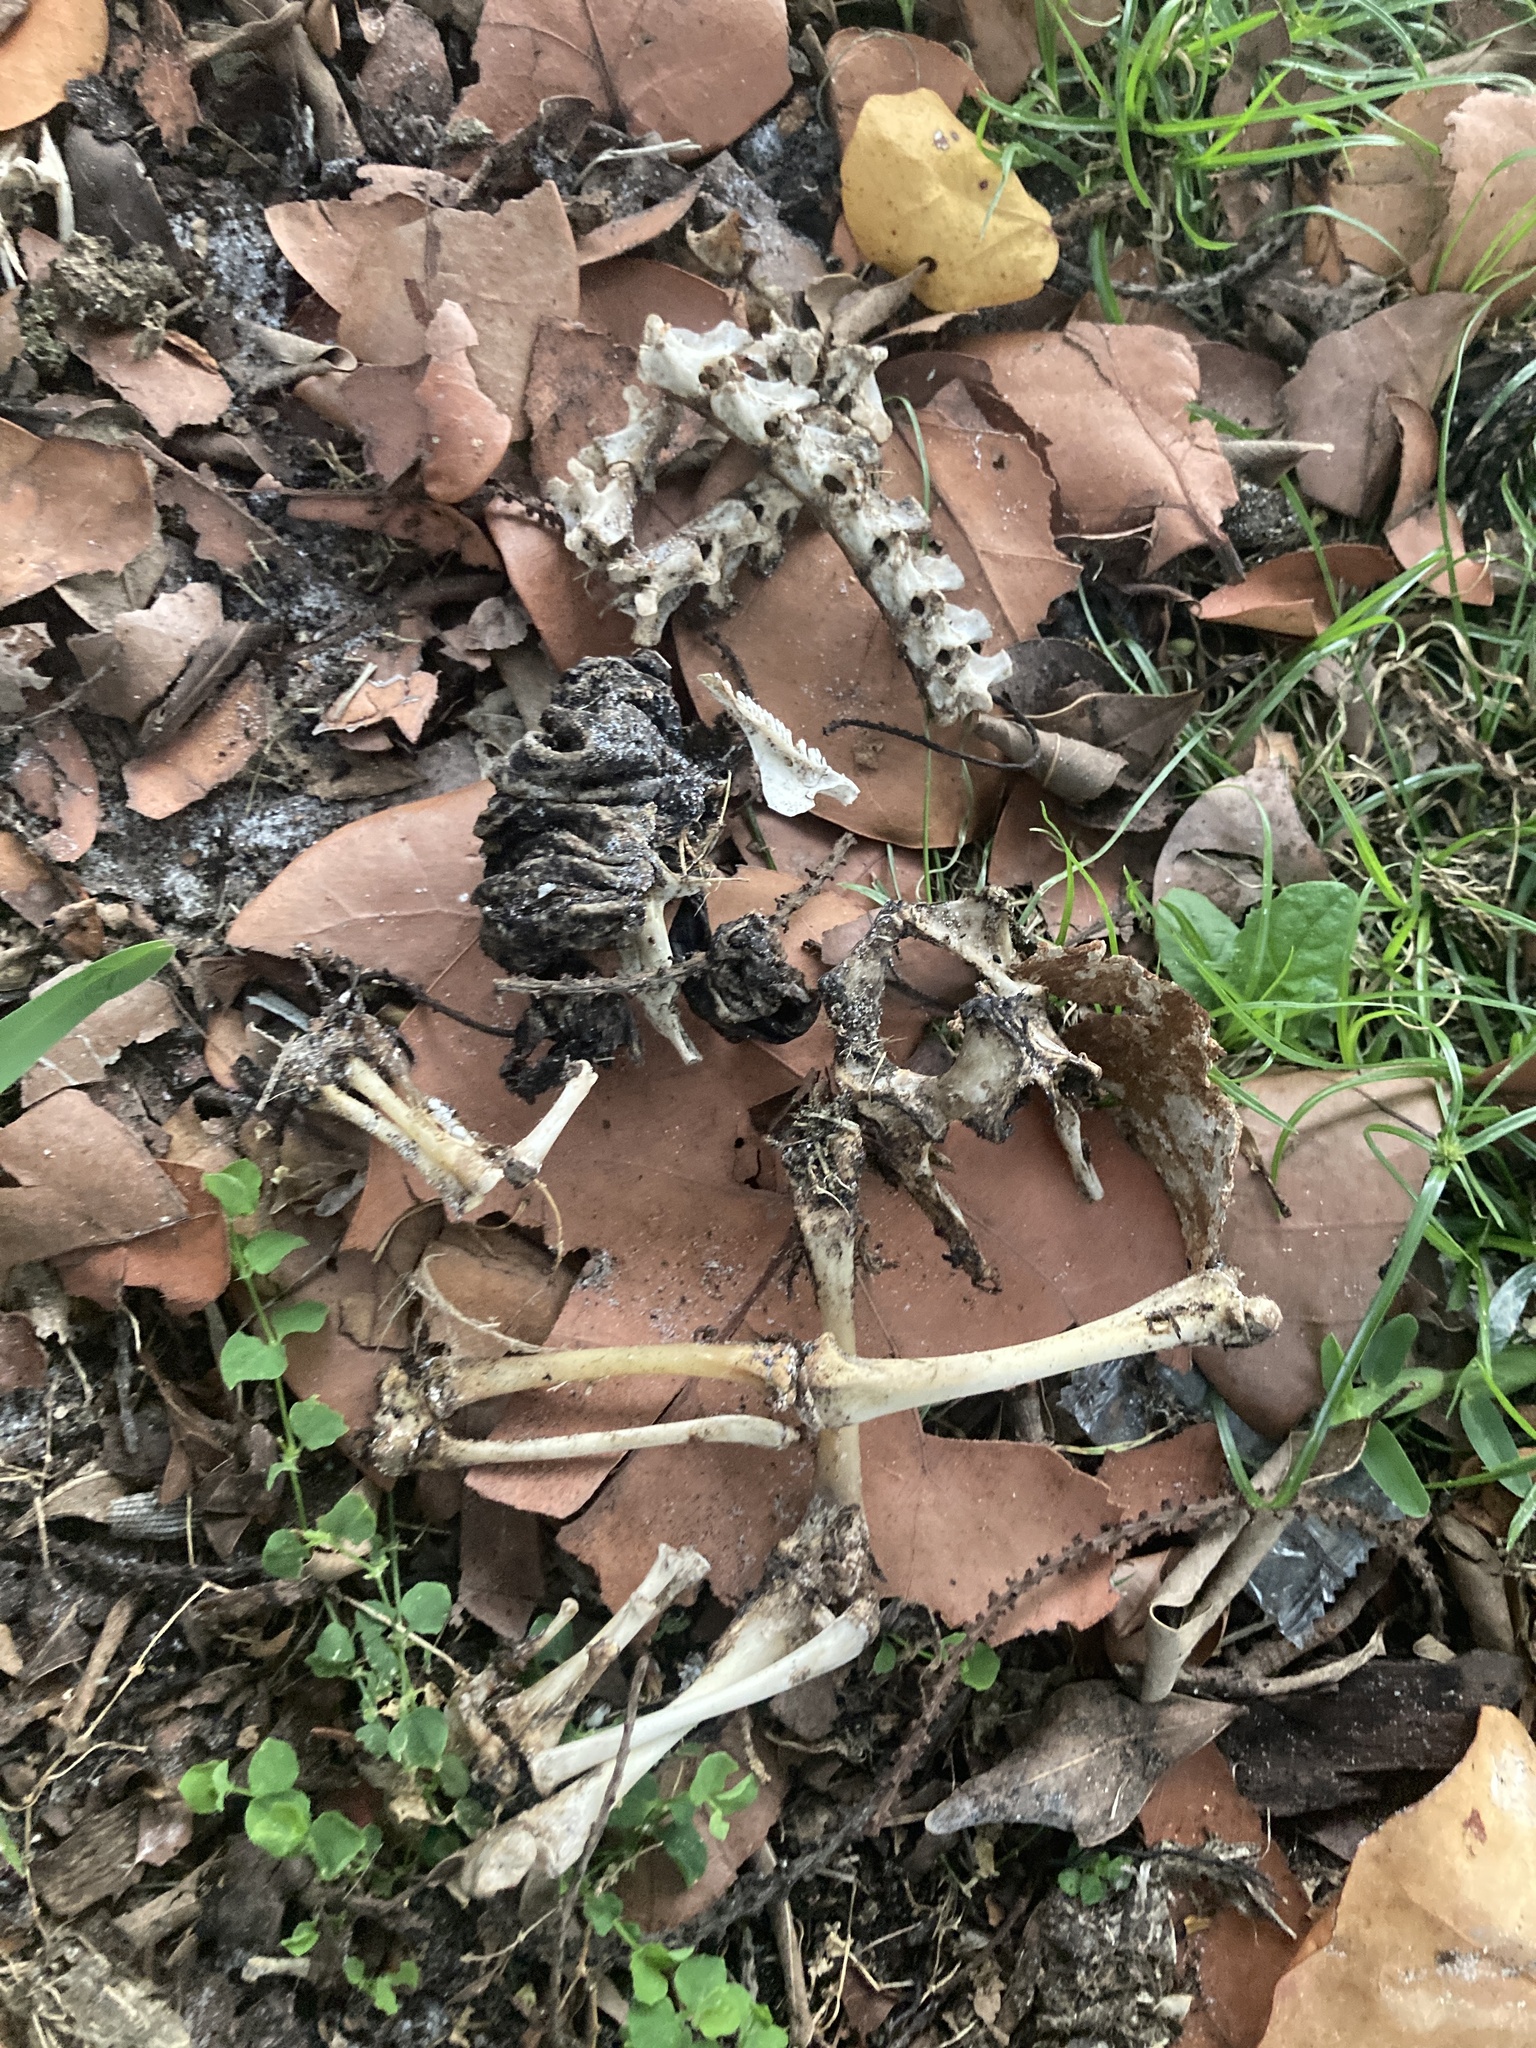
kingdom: Animalia
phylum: Chordata
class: Squamata
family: Iguanidae
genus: Iguana
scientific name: Iguana iguana
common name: Green iguana
